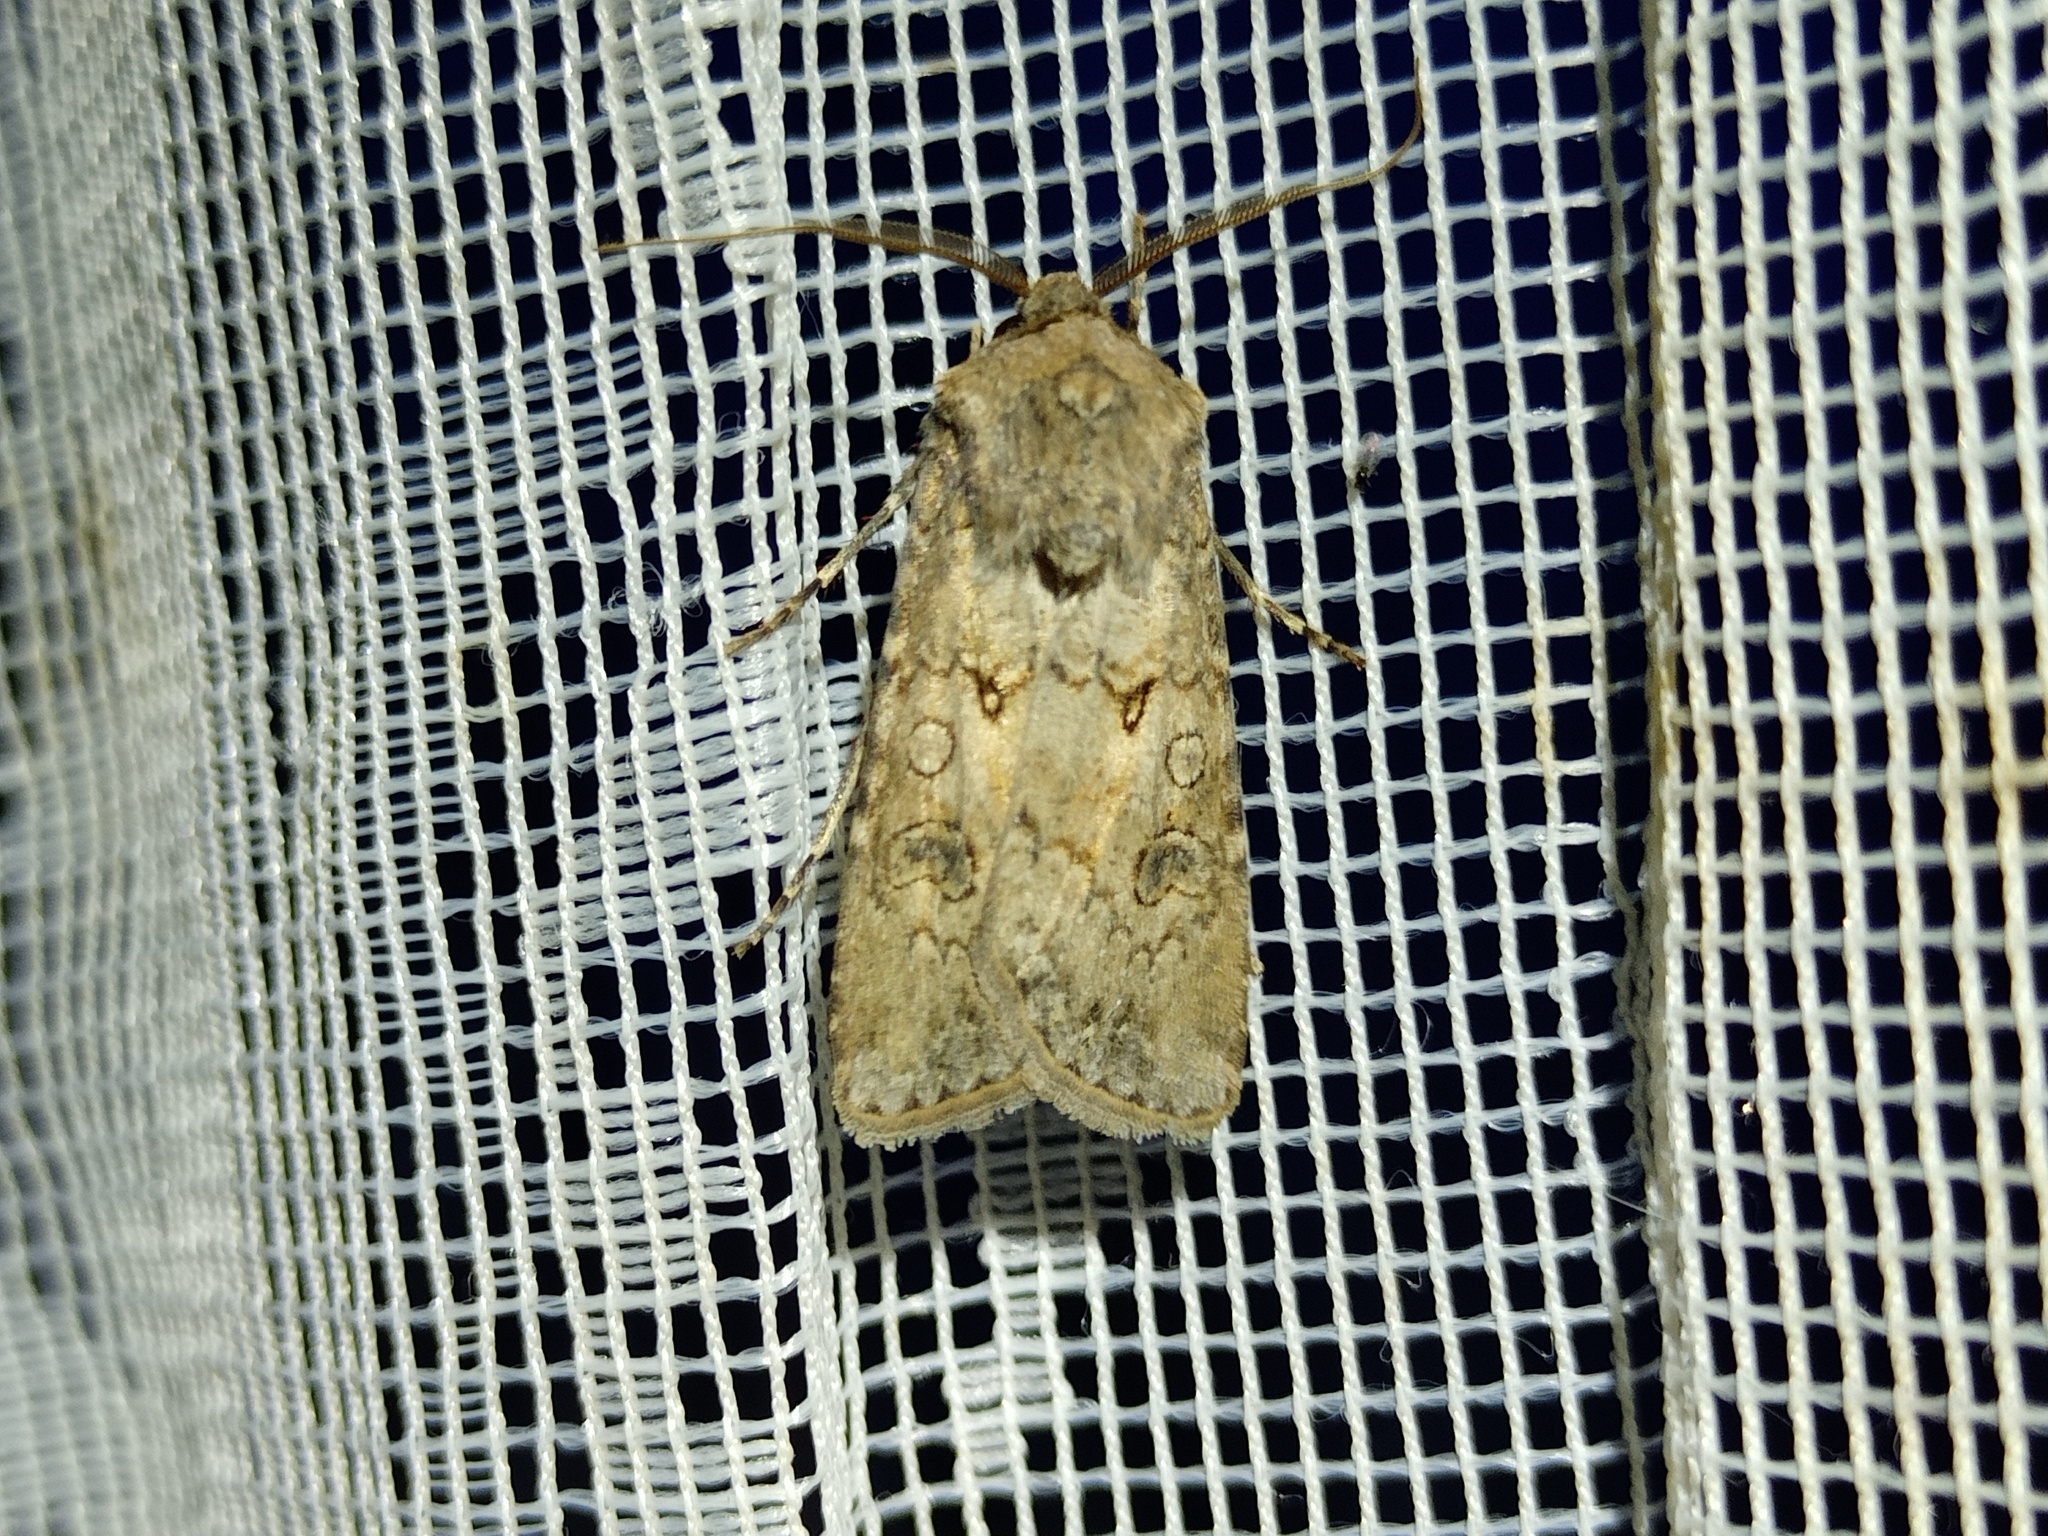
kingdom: Animalia
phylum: Arthropoda
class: Insecta
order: Lepidoptera
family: Noctuidae
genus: Agrotis
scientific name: Agrotis segetum
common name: Turnip moth
